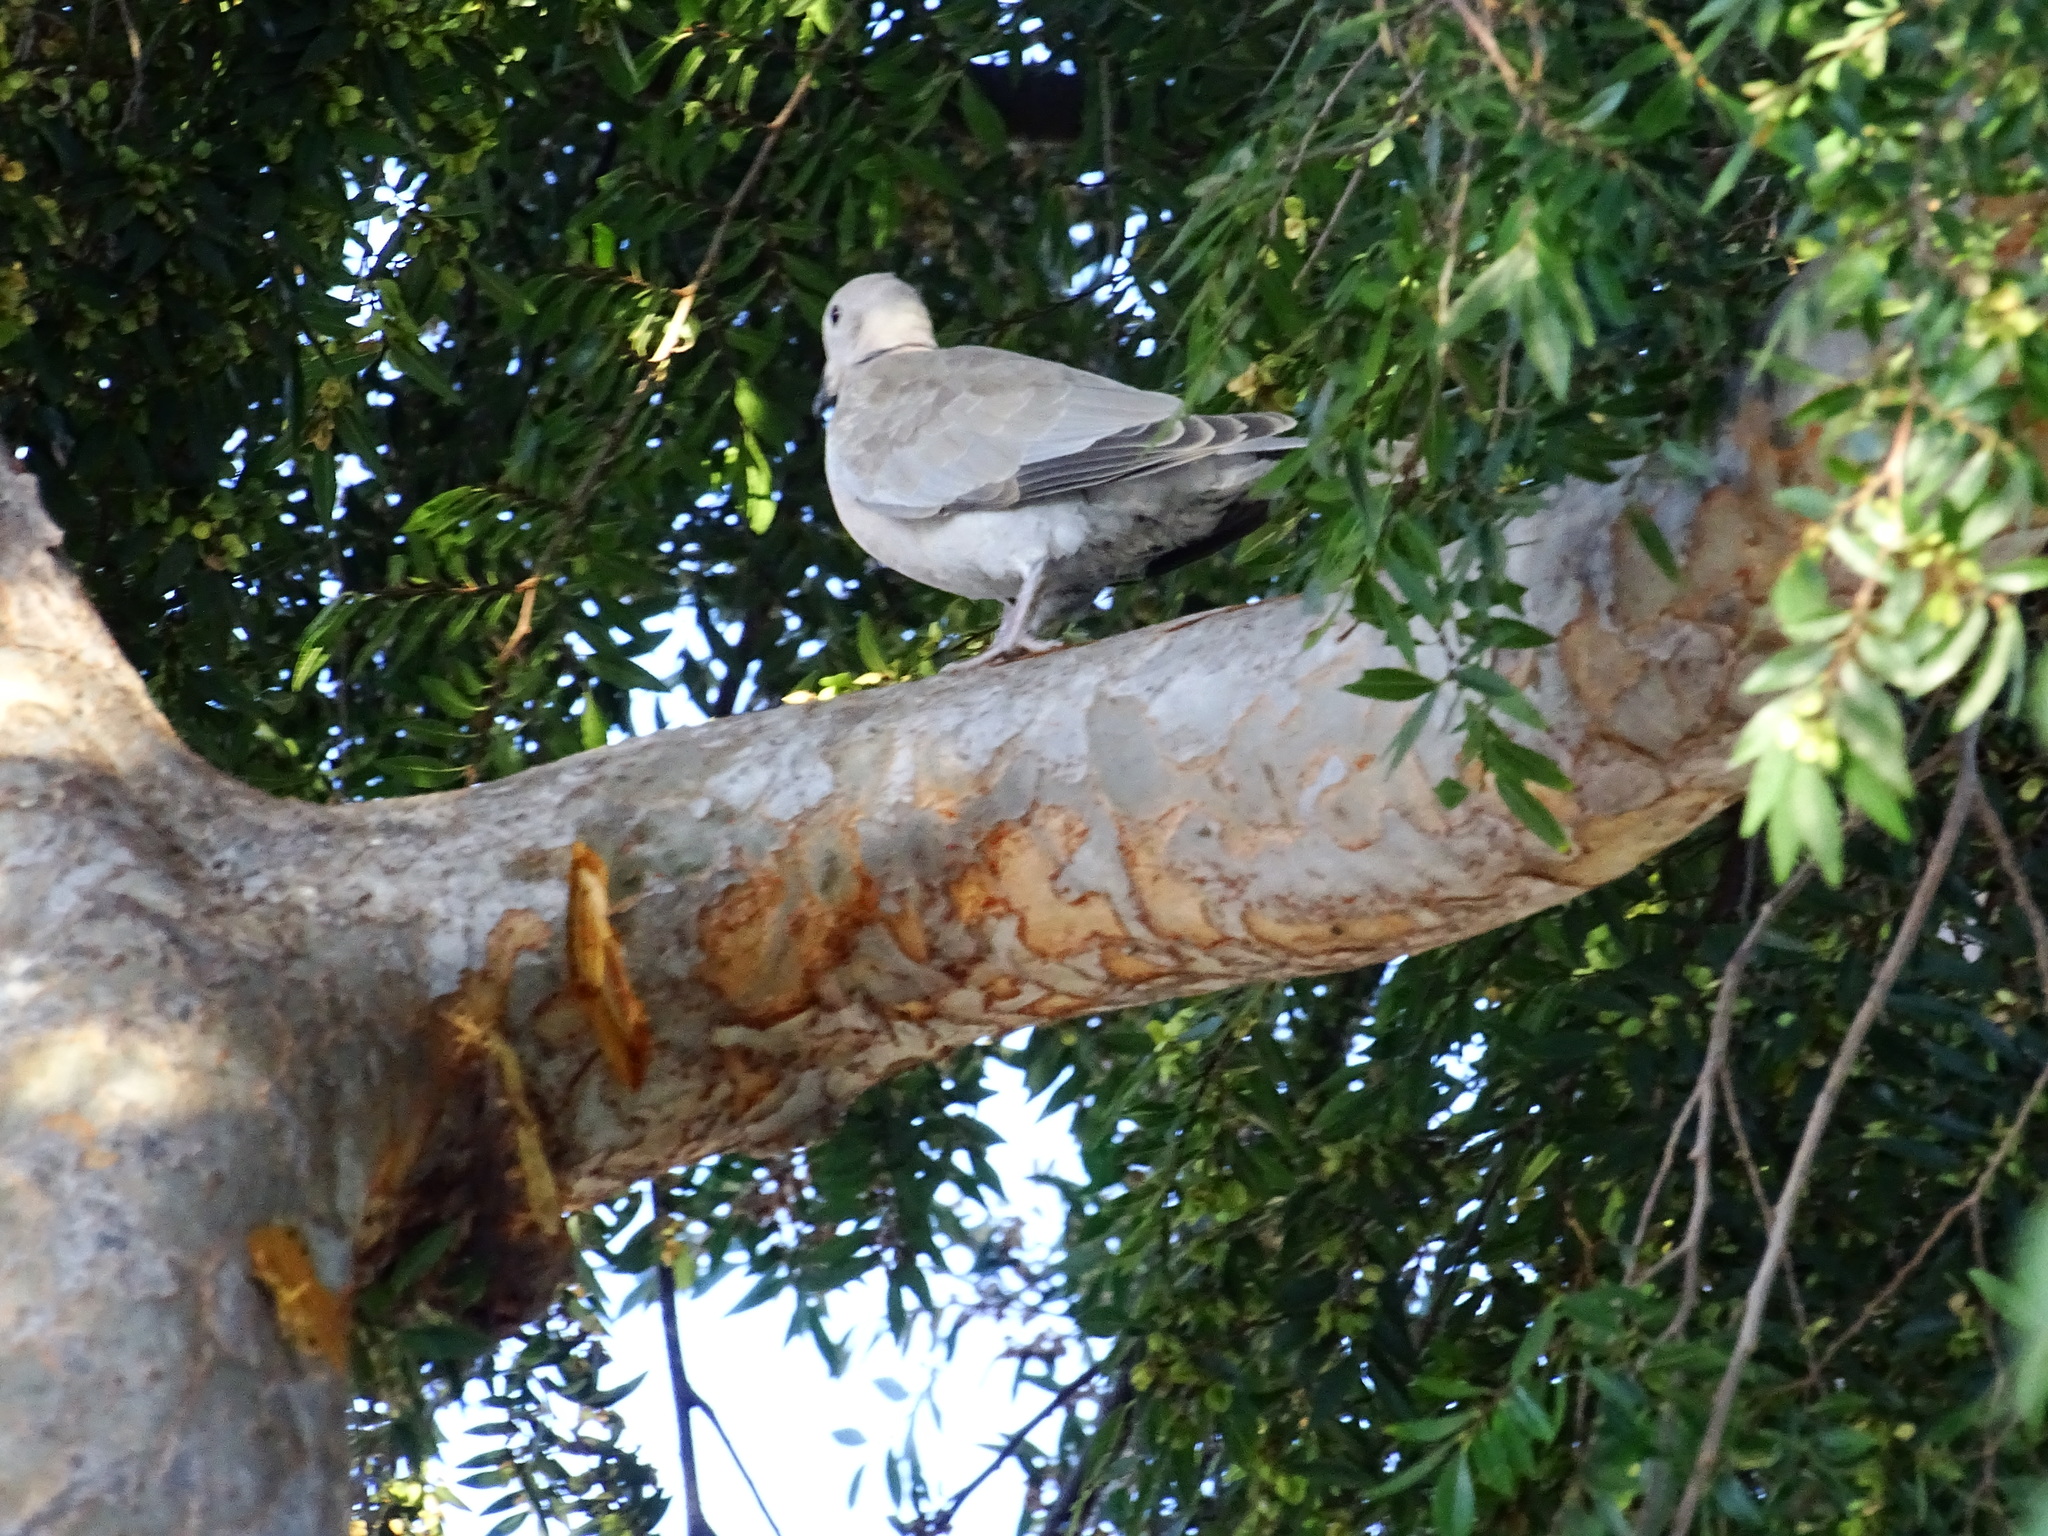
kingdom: Animalia
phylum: Chordata
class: Aves
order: Columbiformes
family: Columbidae
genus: Streptopelia
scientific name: Streptopelia decaocto
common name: Eurasian collared dove
